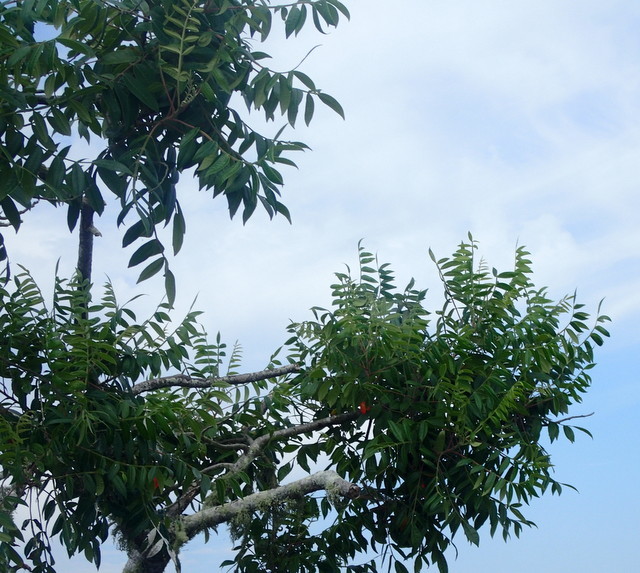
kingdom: Plantae
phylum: Tracheophyta
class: Magnoliopsida
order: Sapindales
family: Anacardiaceae
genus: Rhus
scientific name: Rhus copallina
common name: Shining sumac
